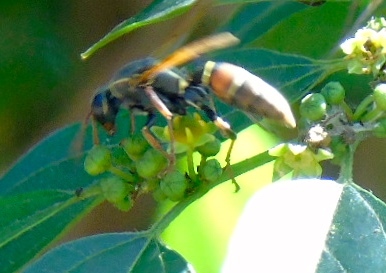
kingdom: Animalia
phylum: Arthropoda
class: Insecta
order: Hymenoptera
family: Eumenidae
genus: Polistes
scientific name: Polistes pacificus
